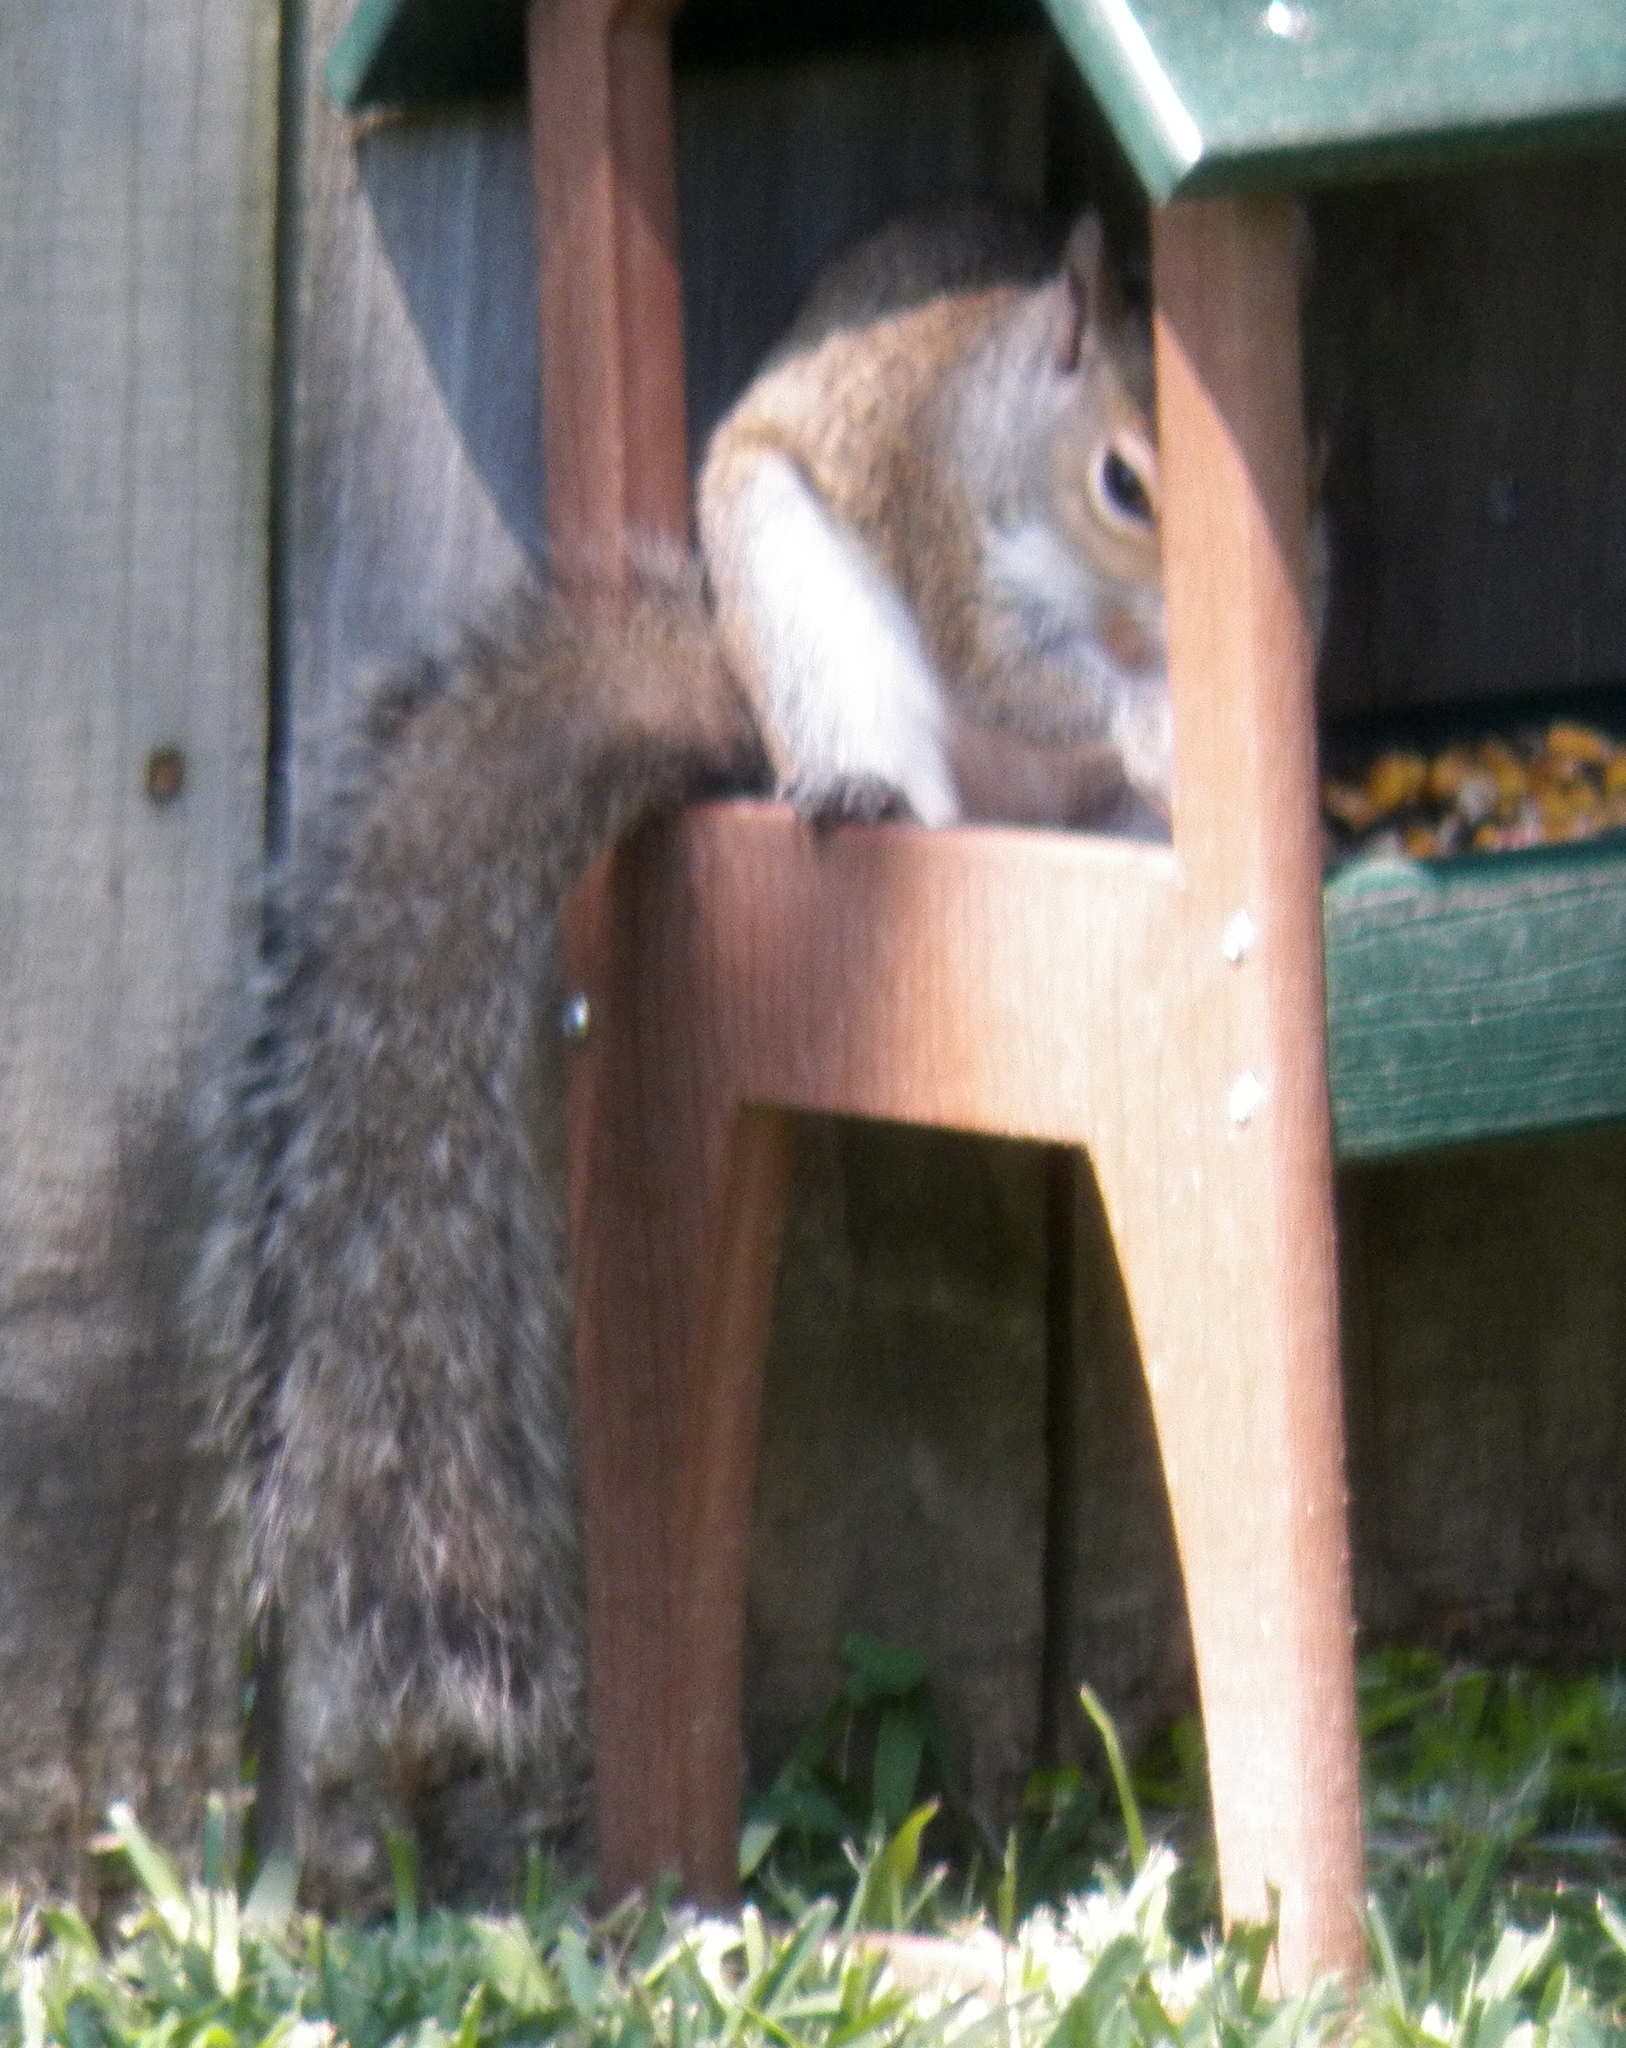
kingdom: Animalia
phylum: Chordata
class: Mammalia
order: Rodentia
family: Sciuridae
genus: Sciurus
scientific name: Sciurus carolinensis
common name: Eastern gray squirrel
